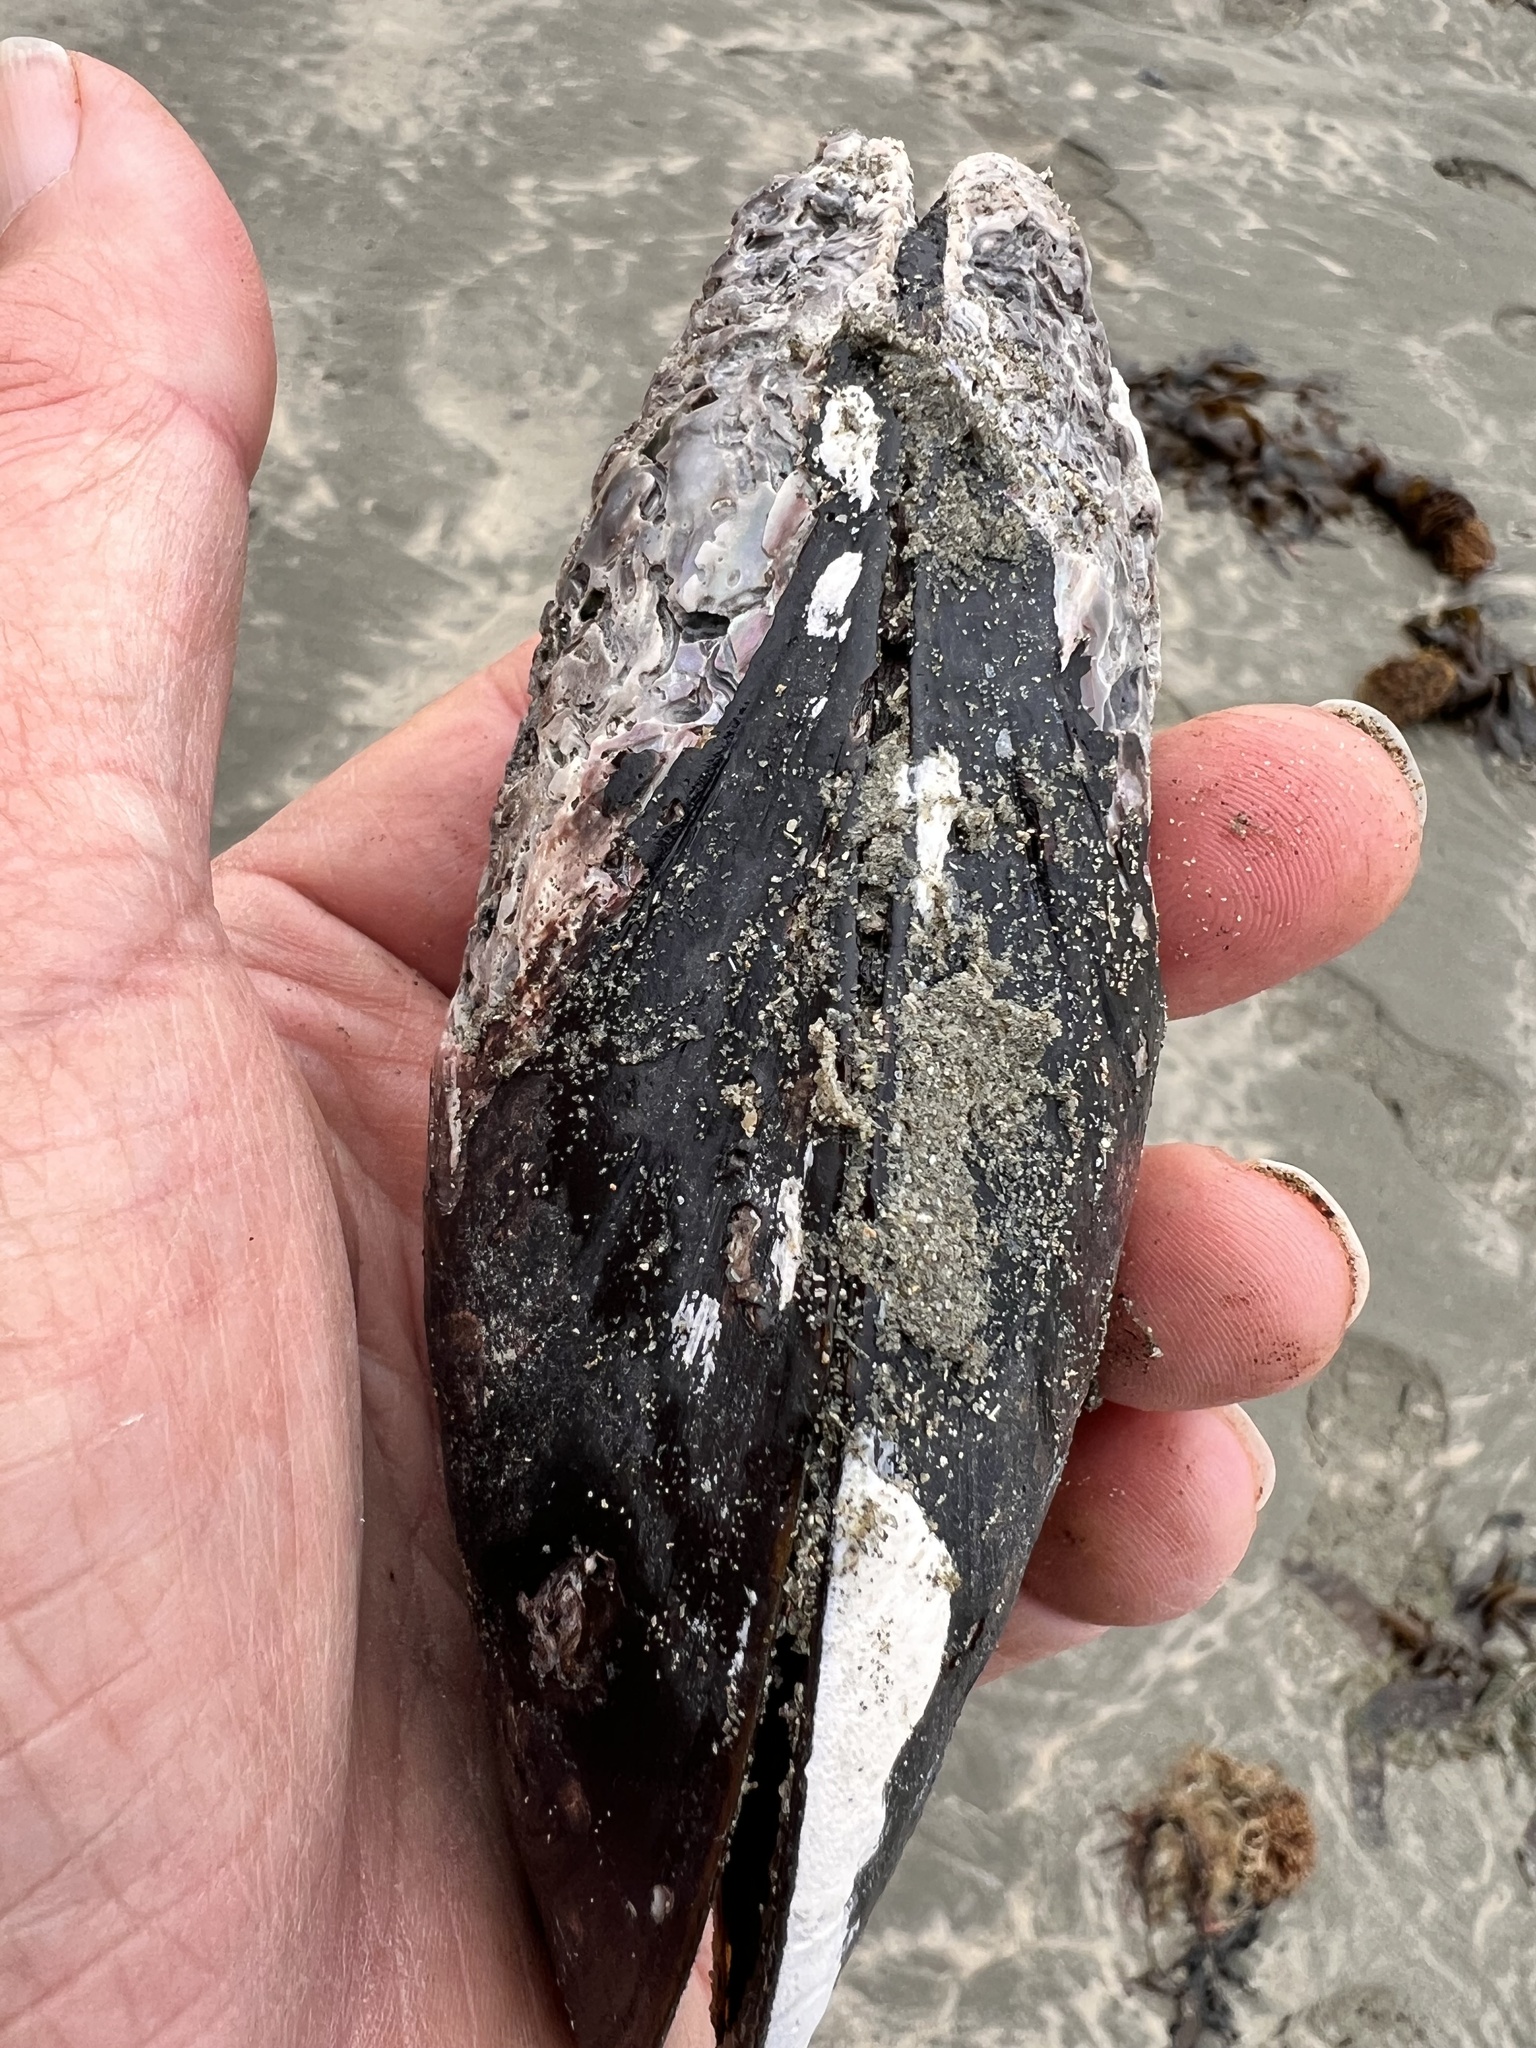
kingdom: Animalia
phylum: Mollusca
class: Bivalvia
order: Mytilida
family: Mytilidae
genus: Perna
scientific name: Perna canaliculus
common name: New zealand greenshelltm
